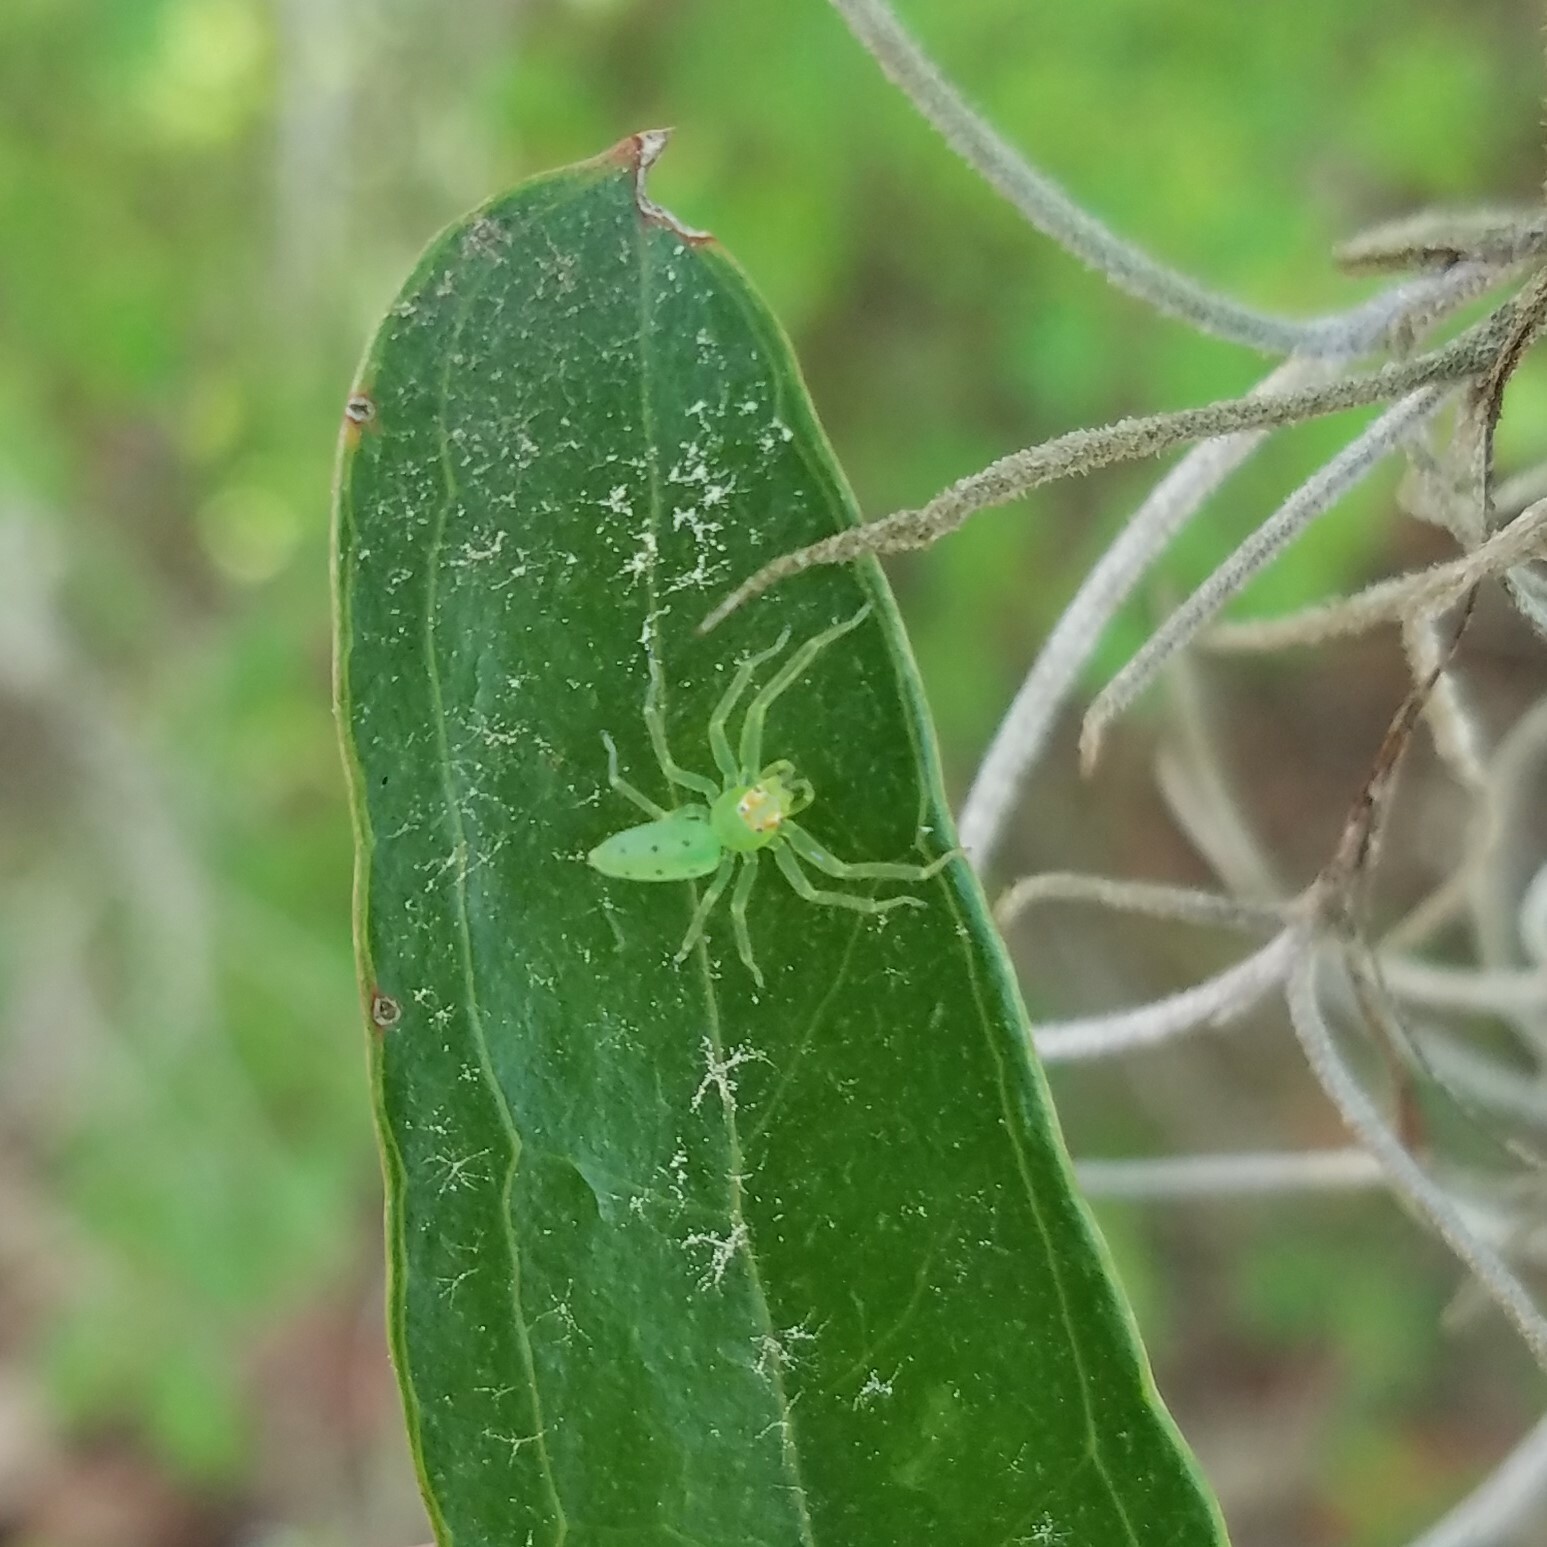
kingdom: Animalia
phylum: Arthropoda
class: Arachnida
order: Araneae
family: Salticidae
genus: Lyssomanes
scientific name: Lyssomanes viridis
